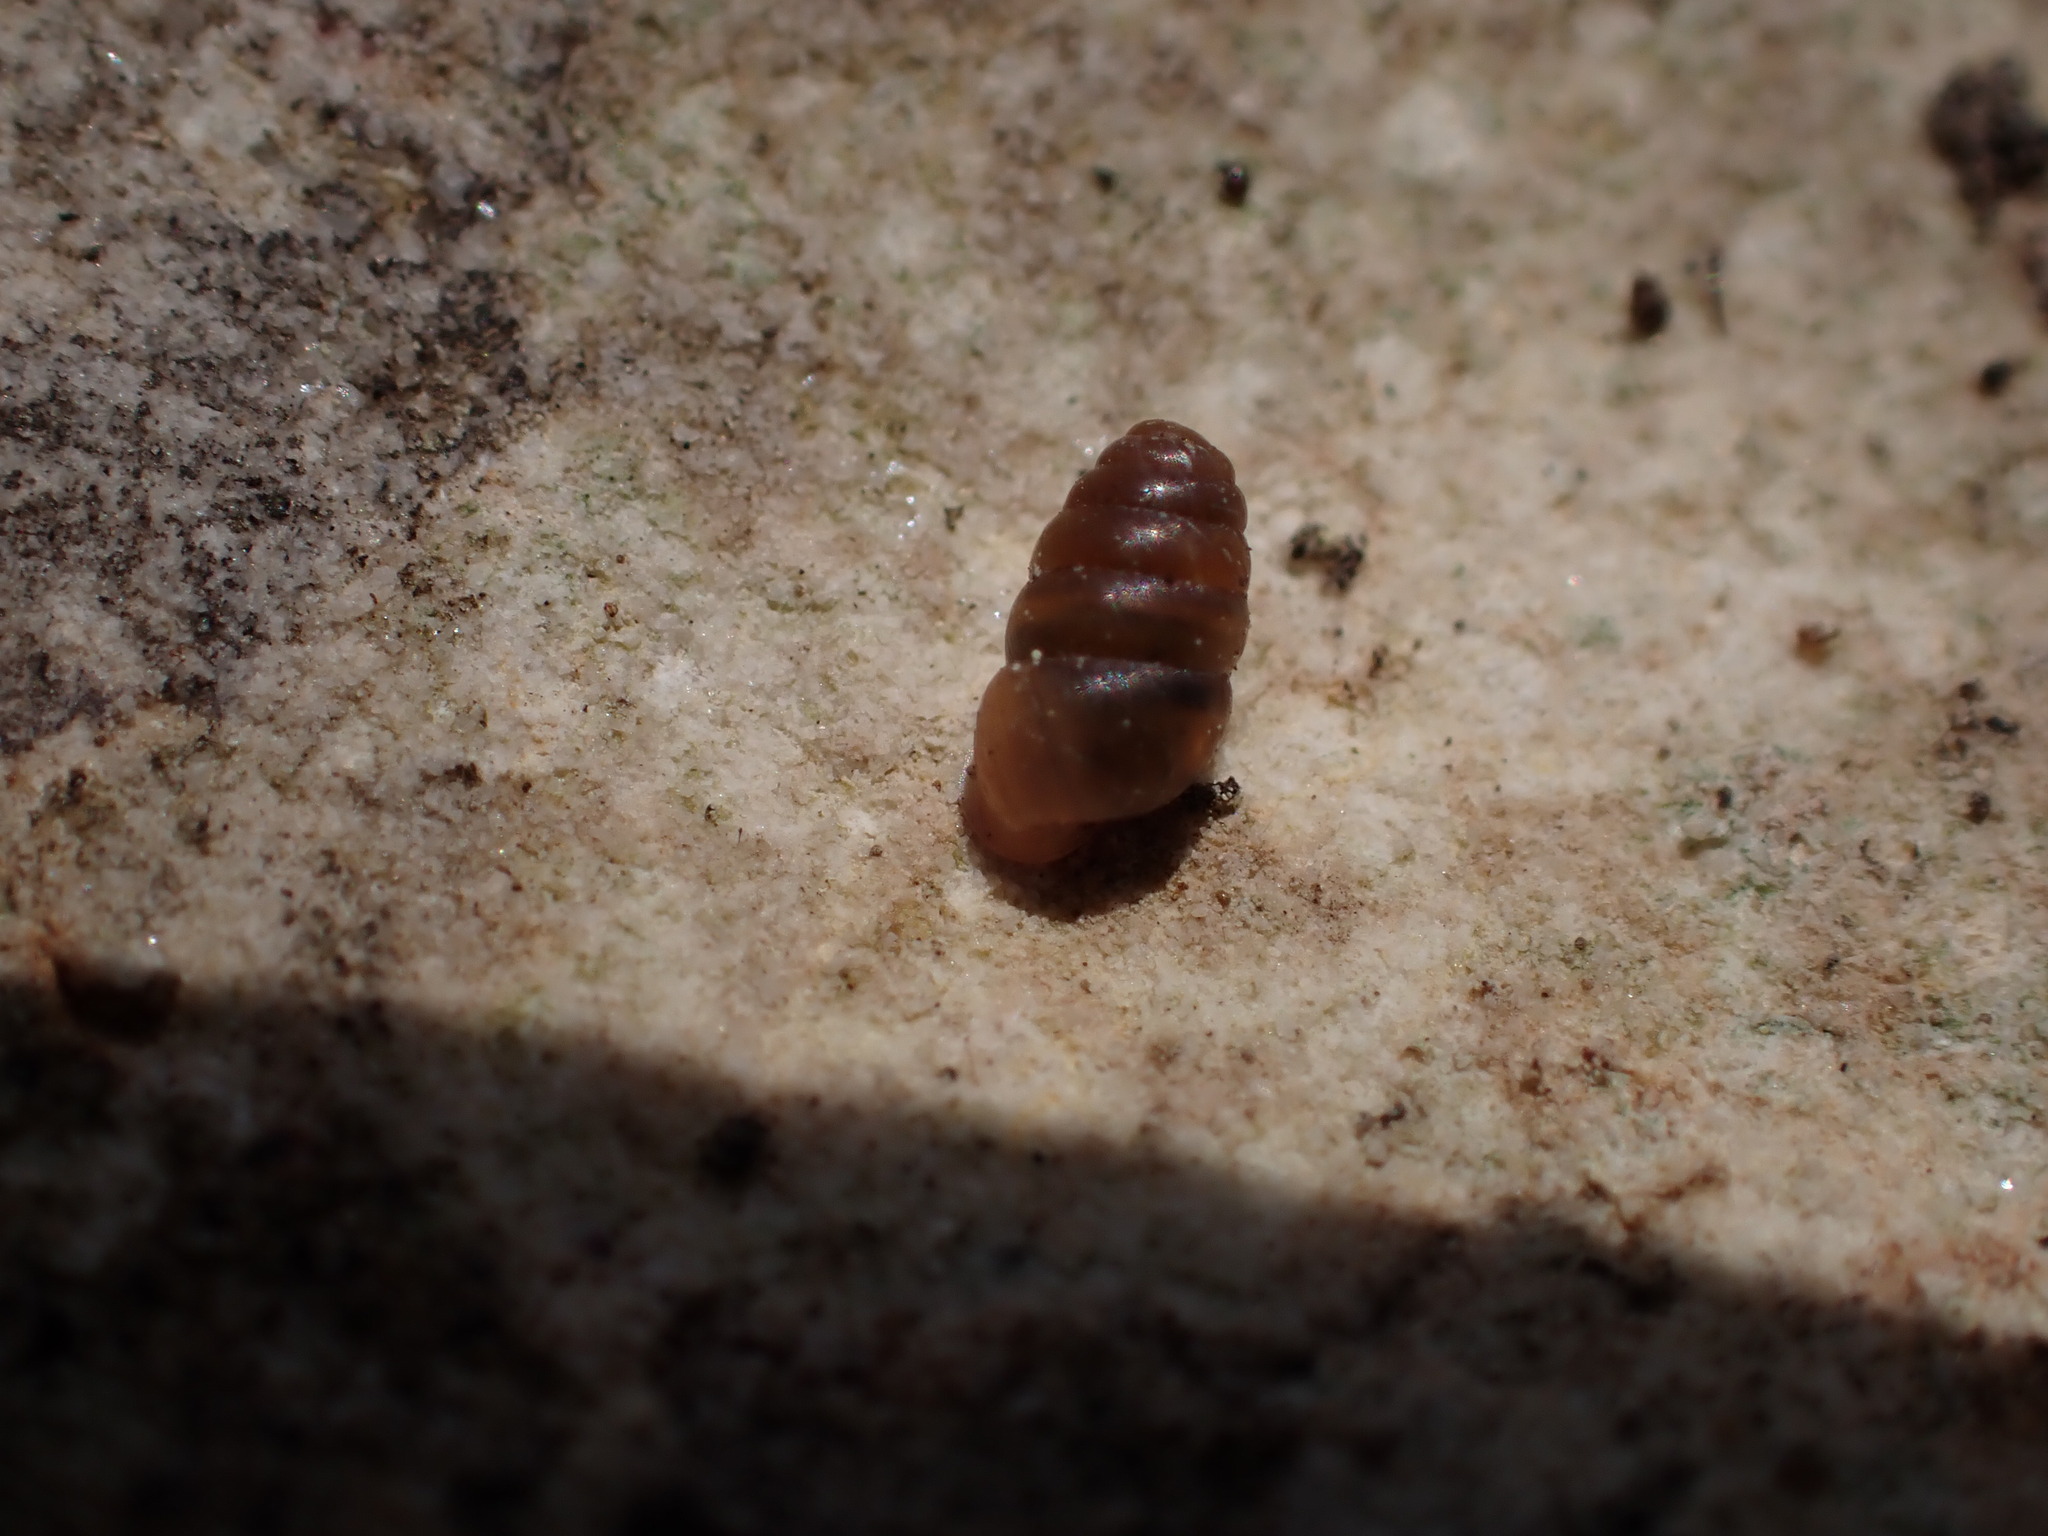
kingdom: Animalia
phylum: Mollusca
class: Gastropoda
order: Stylommatophora
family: Lauriidae
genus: Lauria
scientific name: Lauria cylindracea
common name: Common chrysalis snail
